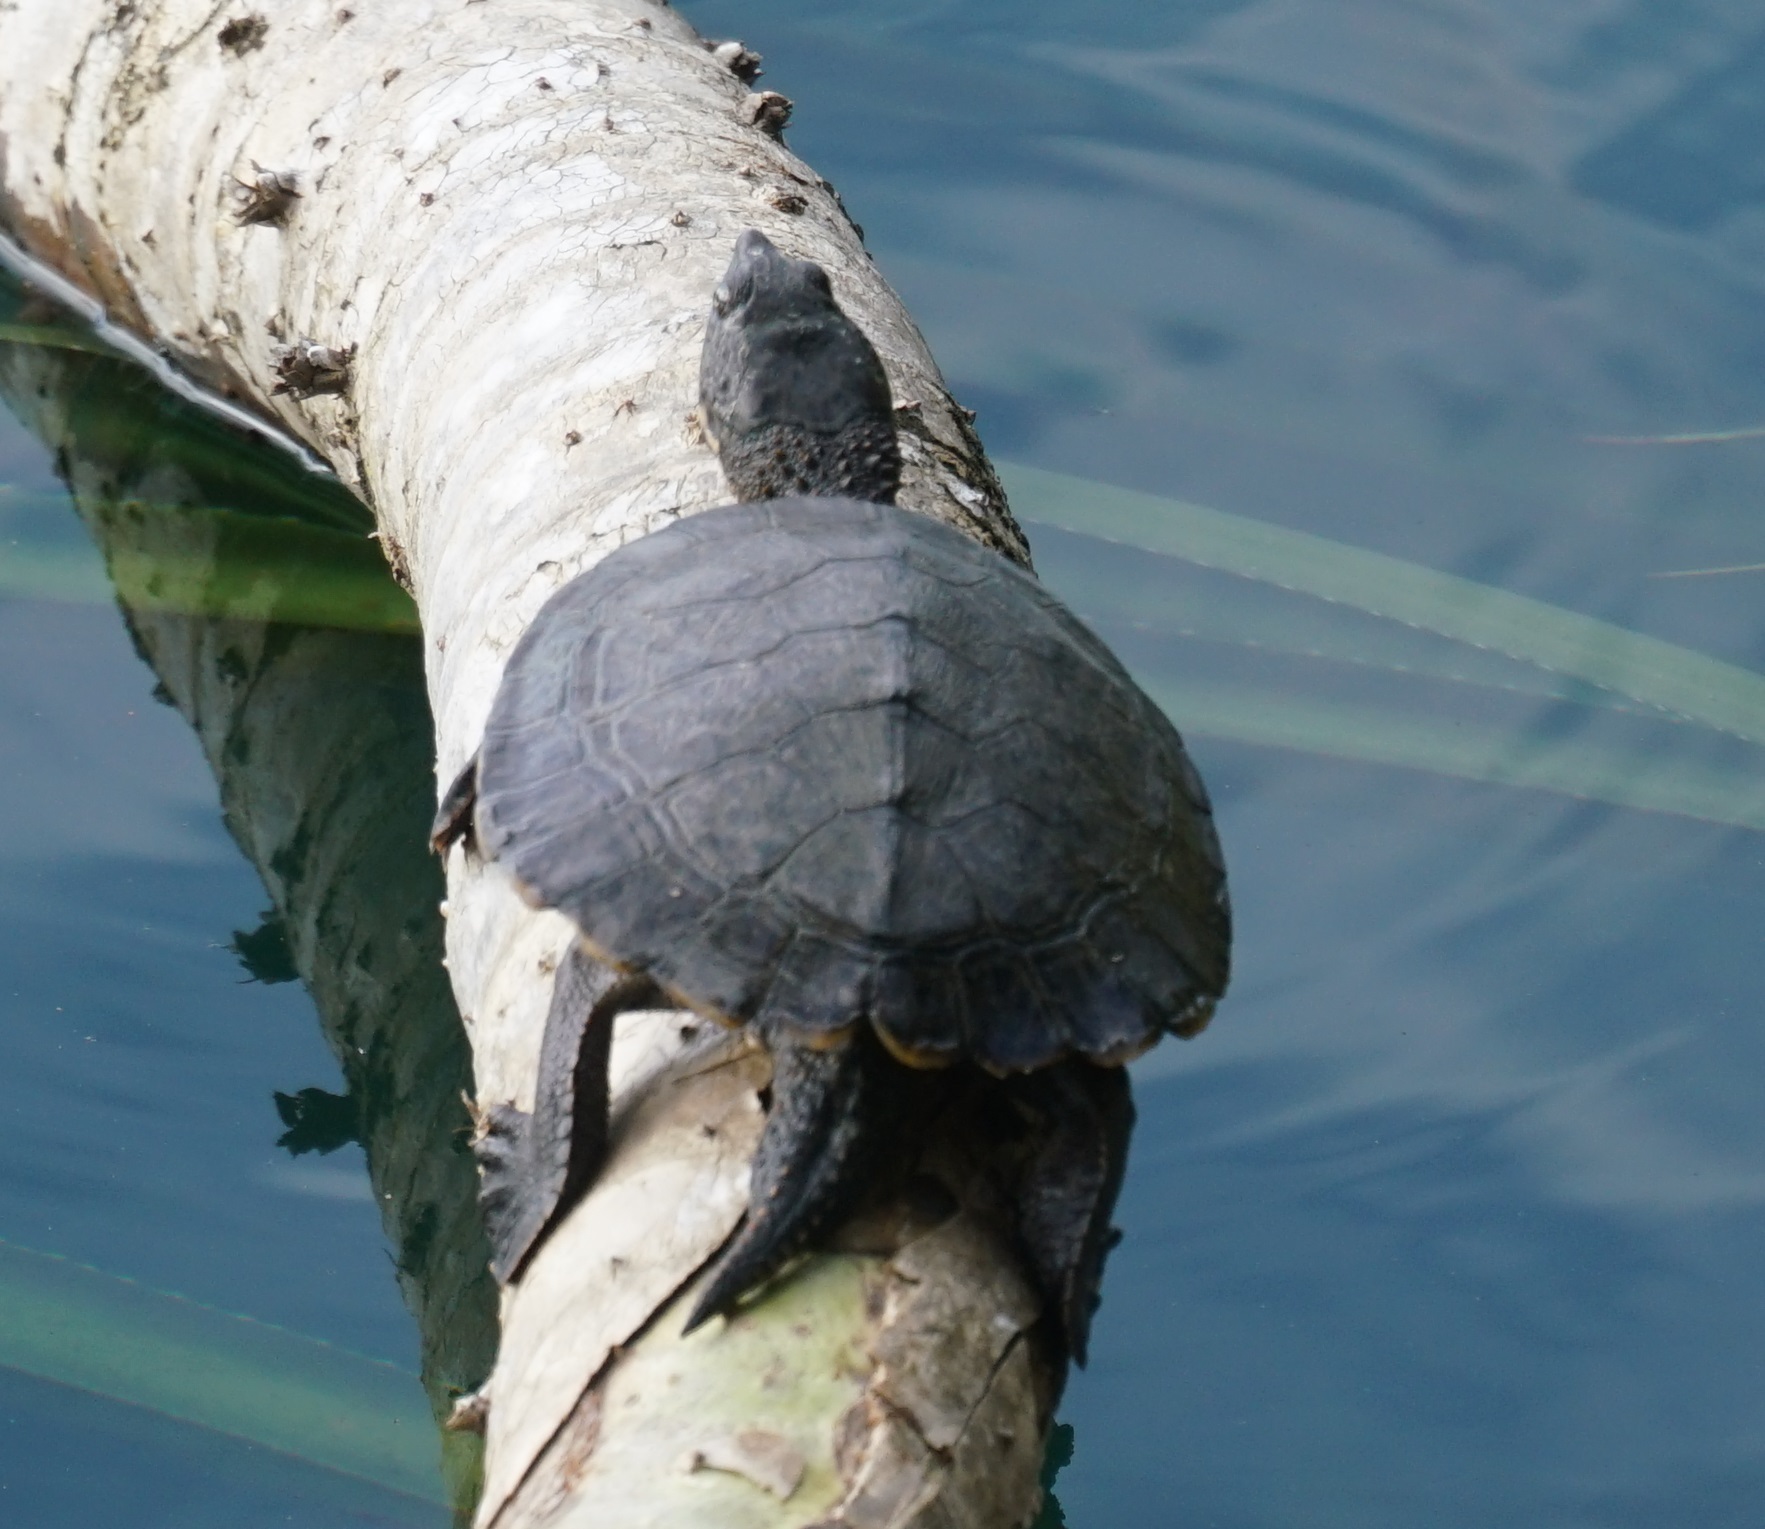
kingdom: Animalia
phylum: Chordata
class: Testudines
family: Chelidae
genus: Myuchelys
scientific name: Myuchelys latisternum
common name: Serrated snapping turtle
